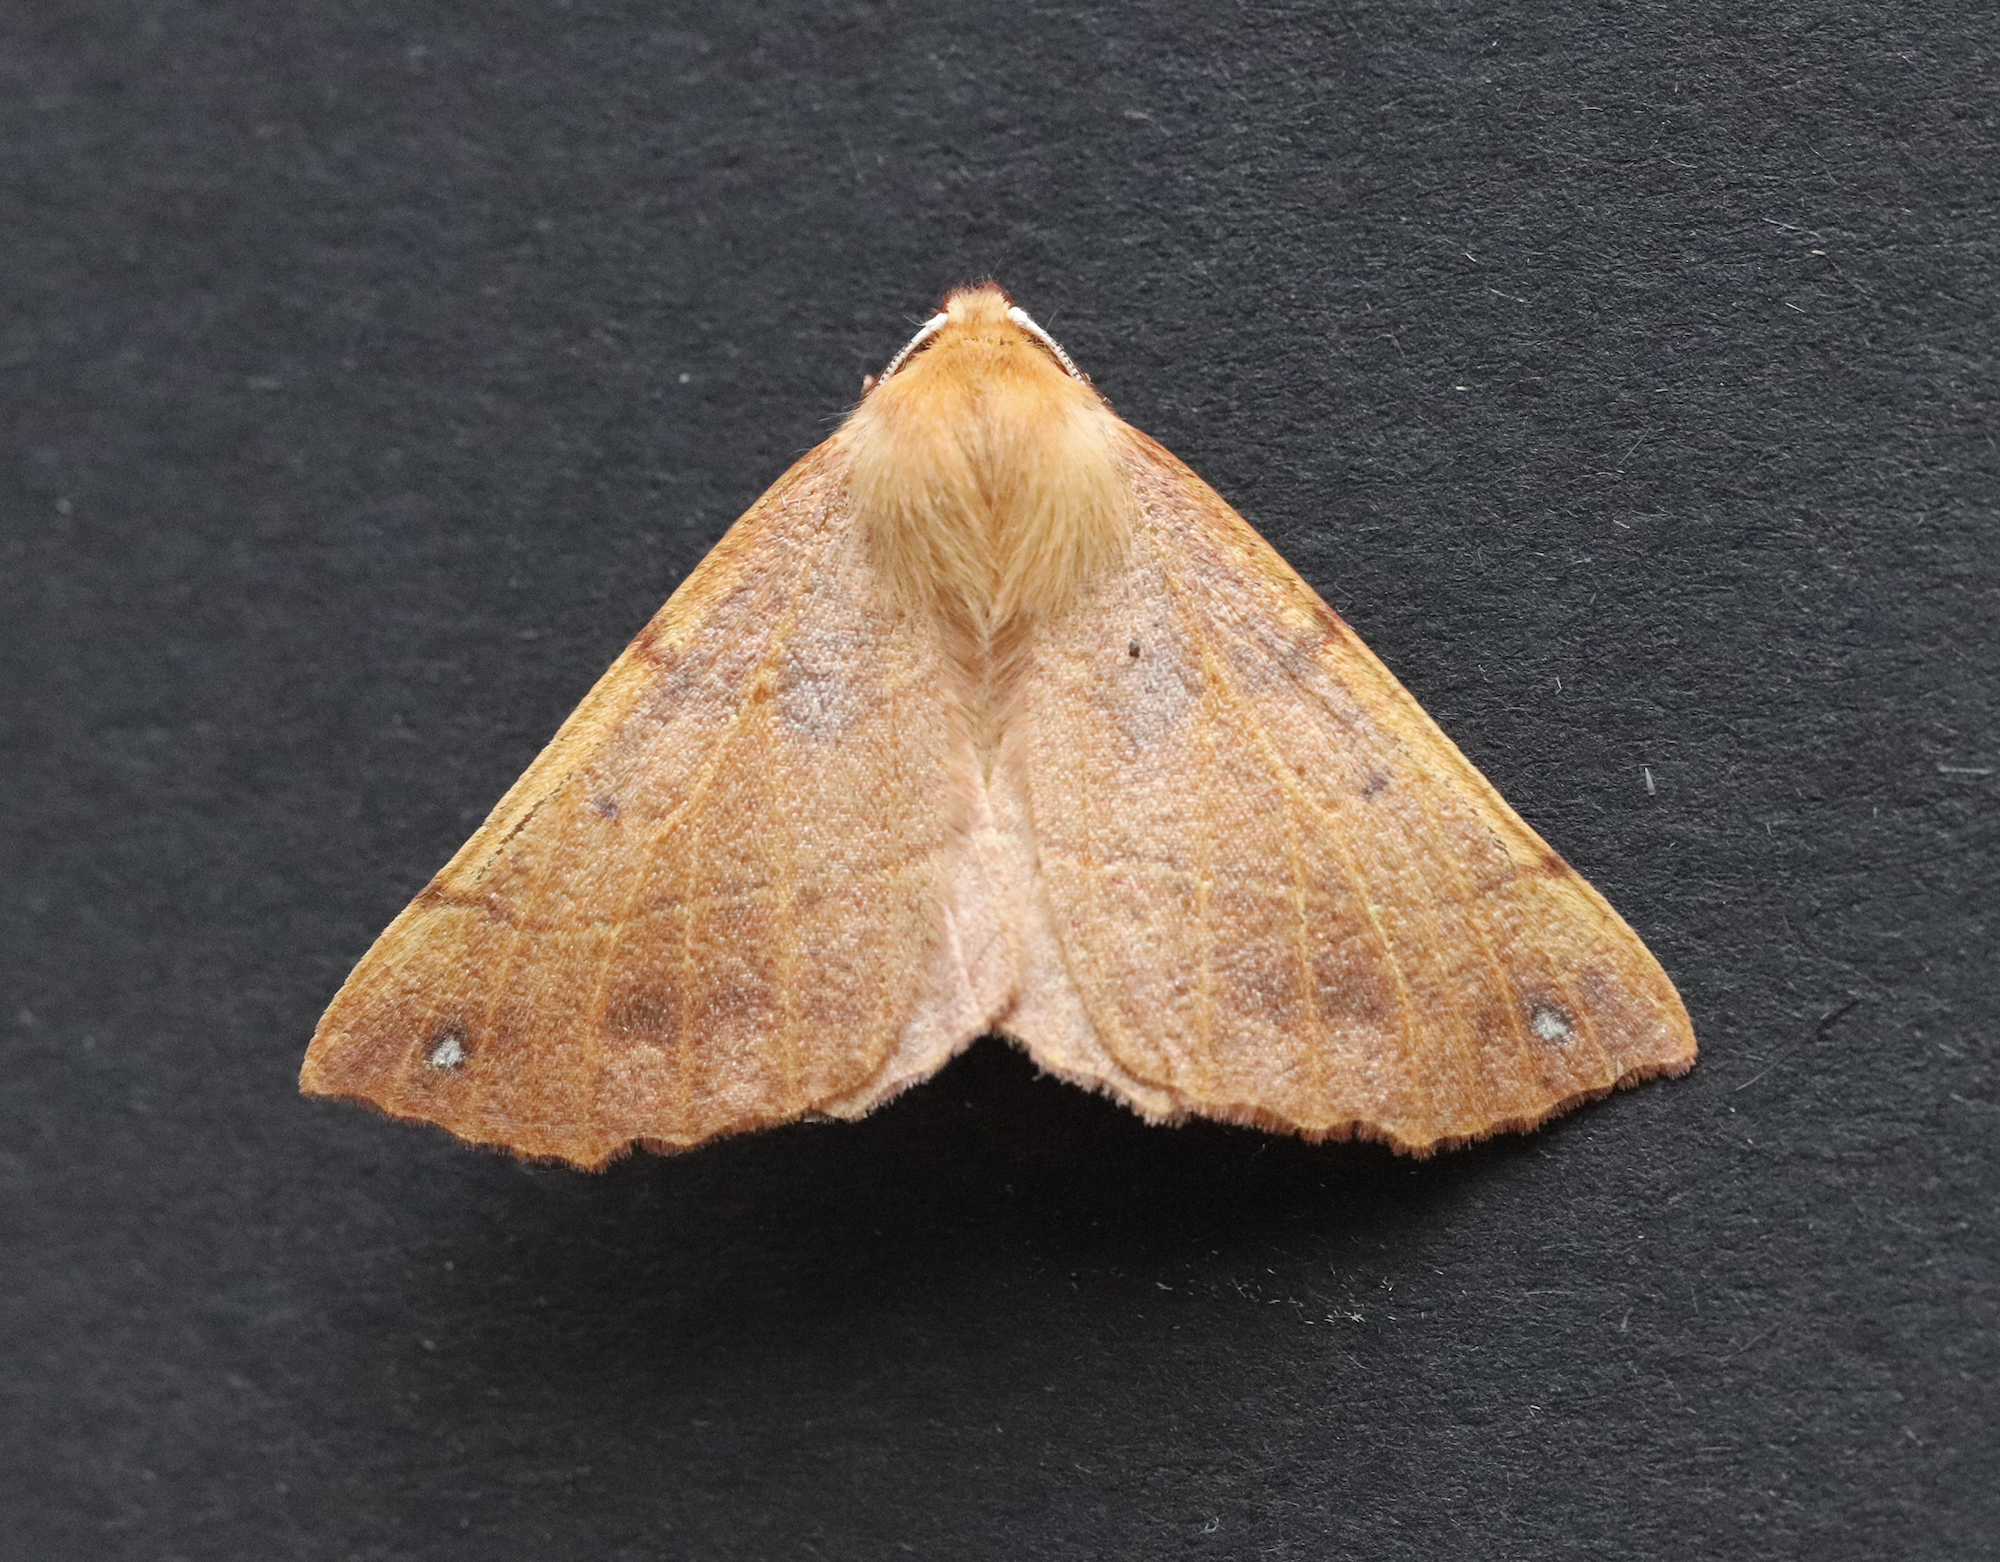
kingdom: Animalia
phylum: Arthropoda
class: Insecta
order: Lepidoptera
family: Geometridae
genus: Colotois
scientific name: Colotois pennaria
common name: Feathered thorn
